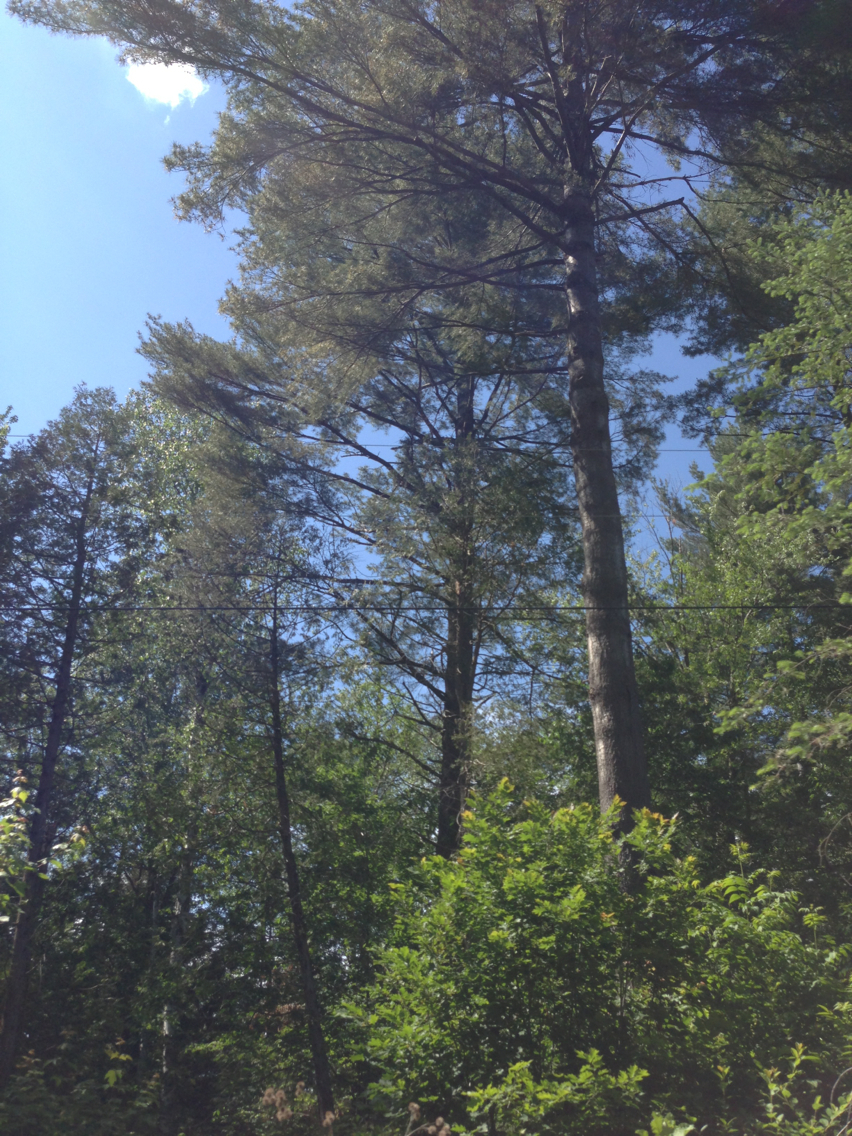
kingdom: Plantae
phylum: Tracheophyta
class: Pinopsida
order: Pinales
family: Pinaceae
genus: Pinus
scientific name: Pinus strobus
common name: Weymouth pine
